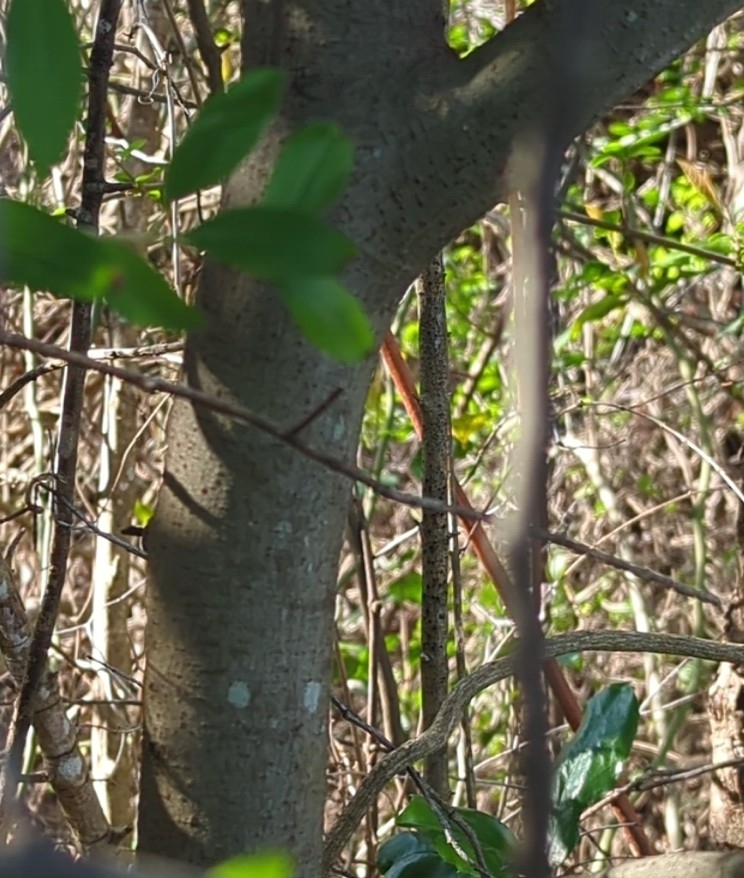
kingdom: Plantae
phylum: Tracheophyta
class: Magnoliopsida
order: Rosales
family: Rosaceae
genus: Prunus
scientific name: Prunus caroliniana
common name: Carolina laurel cherry
